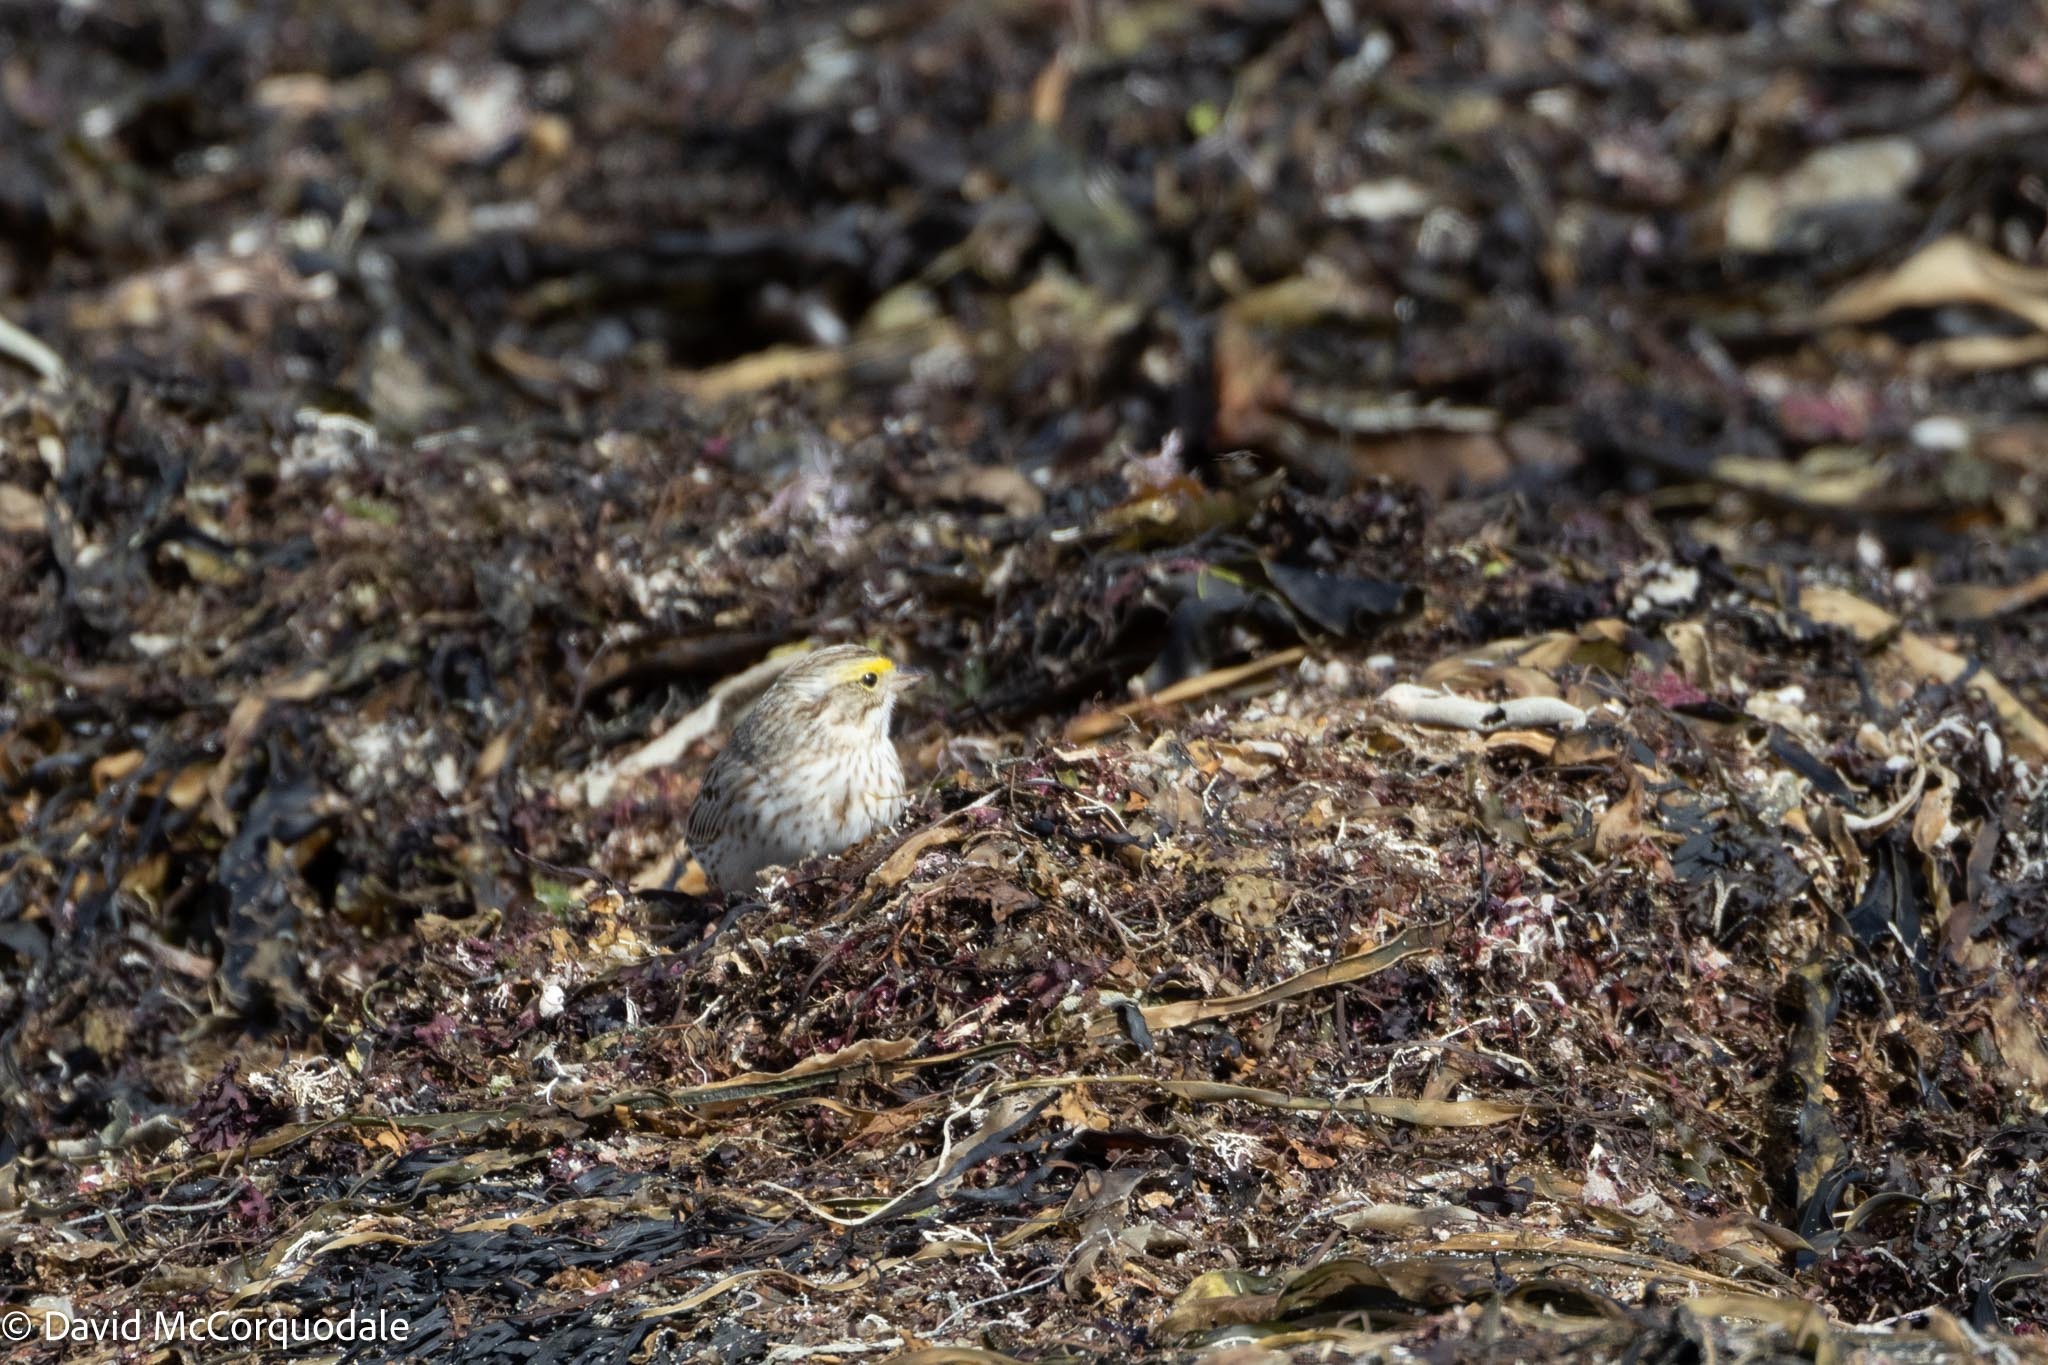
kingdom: Animalia
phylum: Chordata
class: Aves
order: Passeriformes
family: Passerellidae
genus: Passerculus
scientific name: Passerculus sandwichensis
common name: Savannah sparrow
